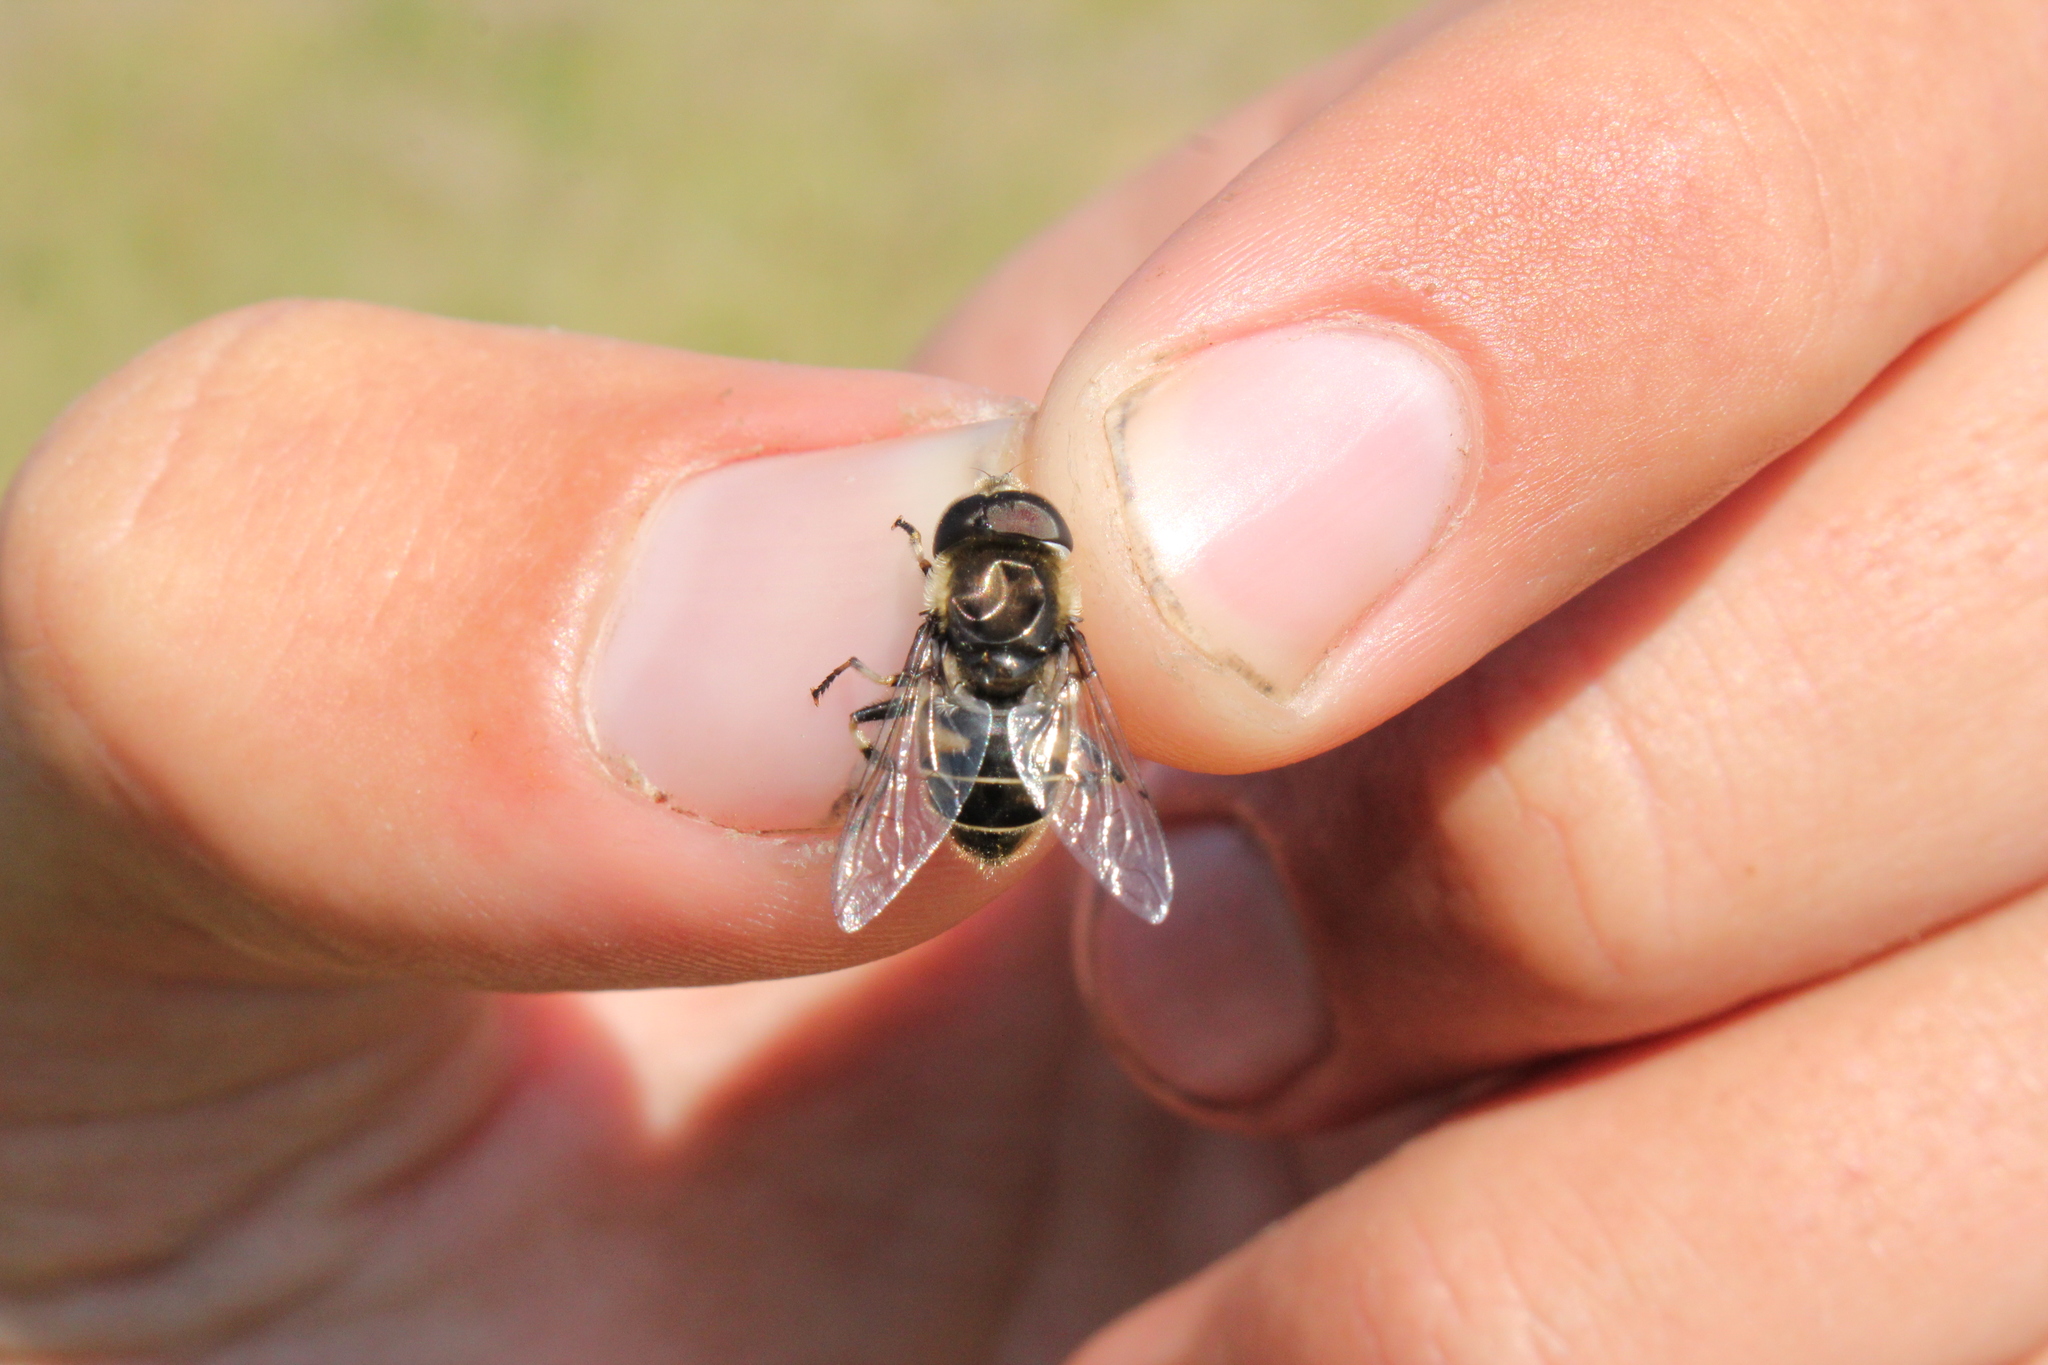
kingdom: Animalia
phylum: Arthropoda
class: Insecta
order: Diptera
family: Syrphidae
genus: Eristalis
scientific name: Eristalis dimidiata
